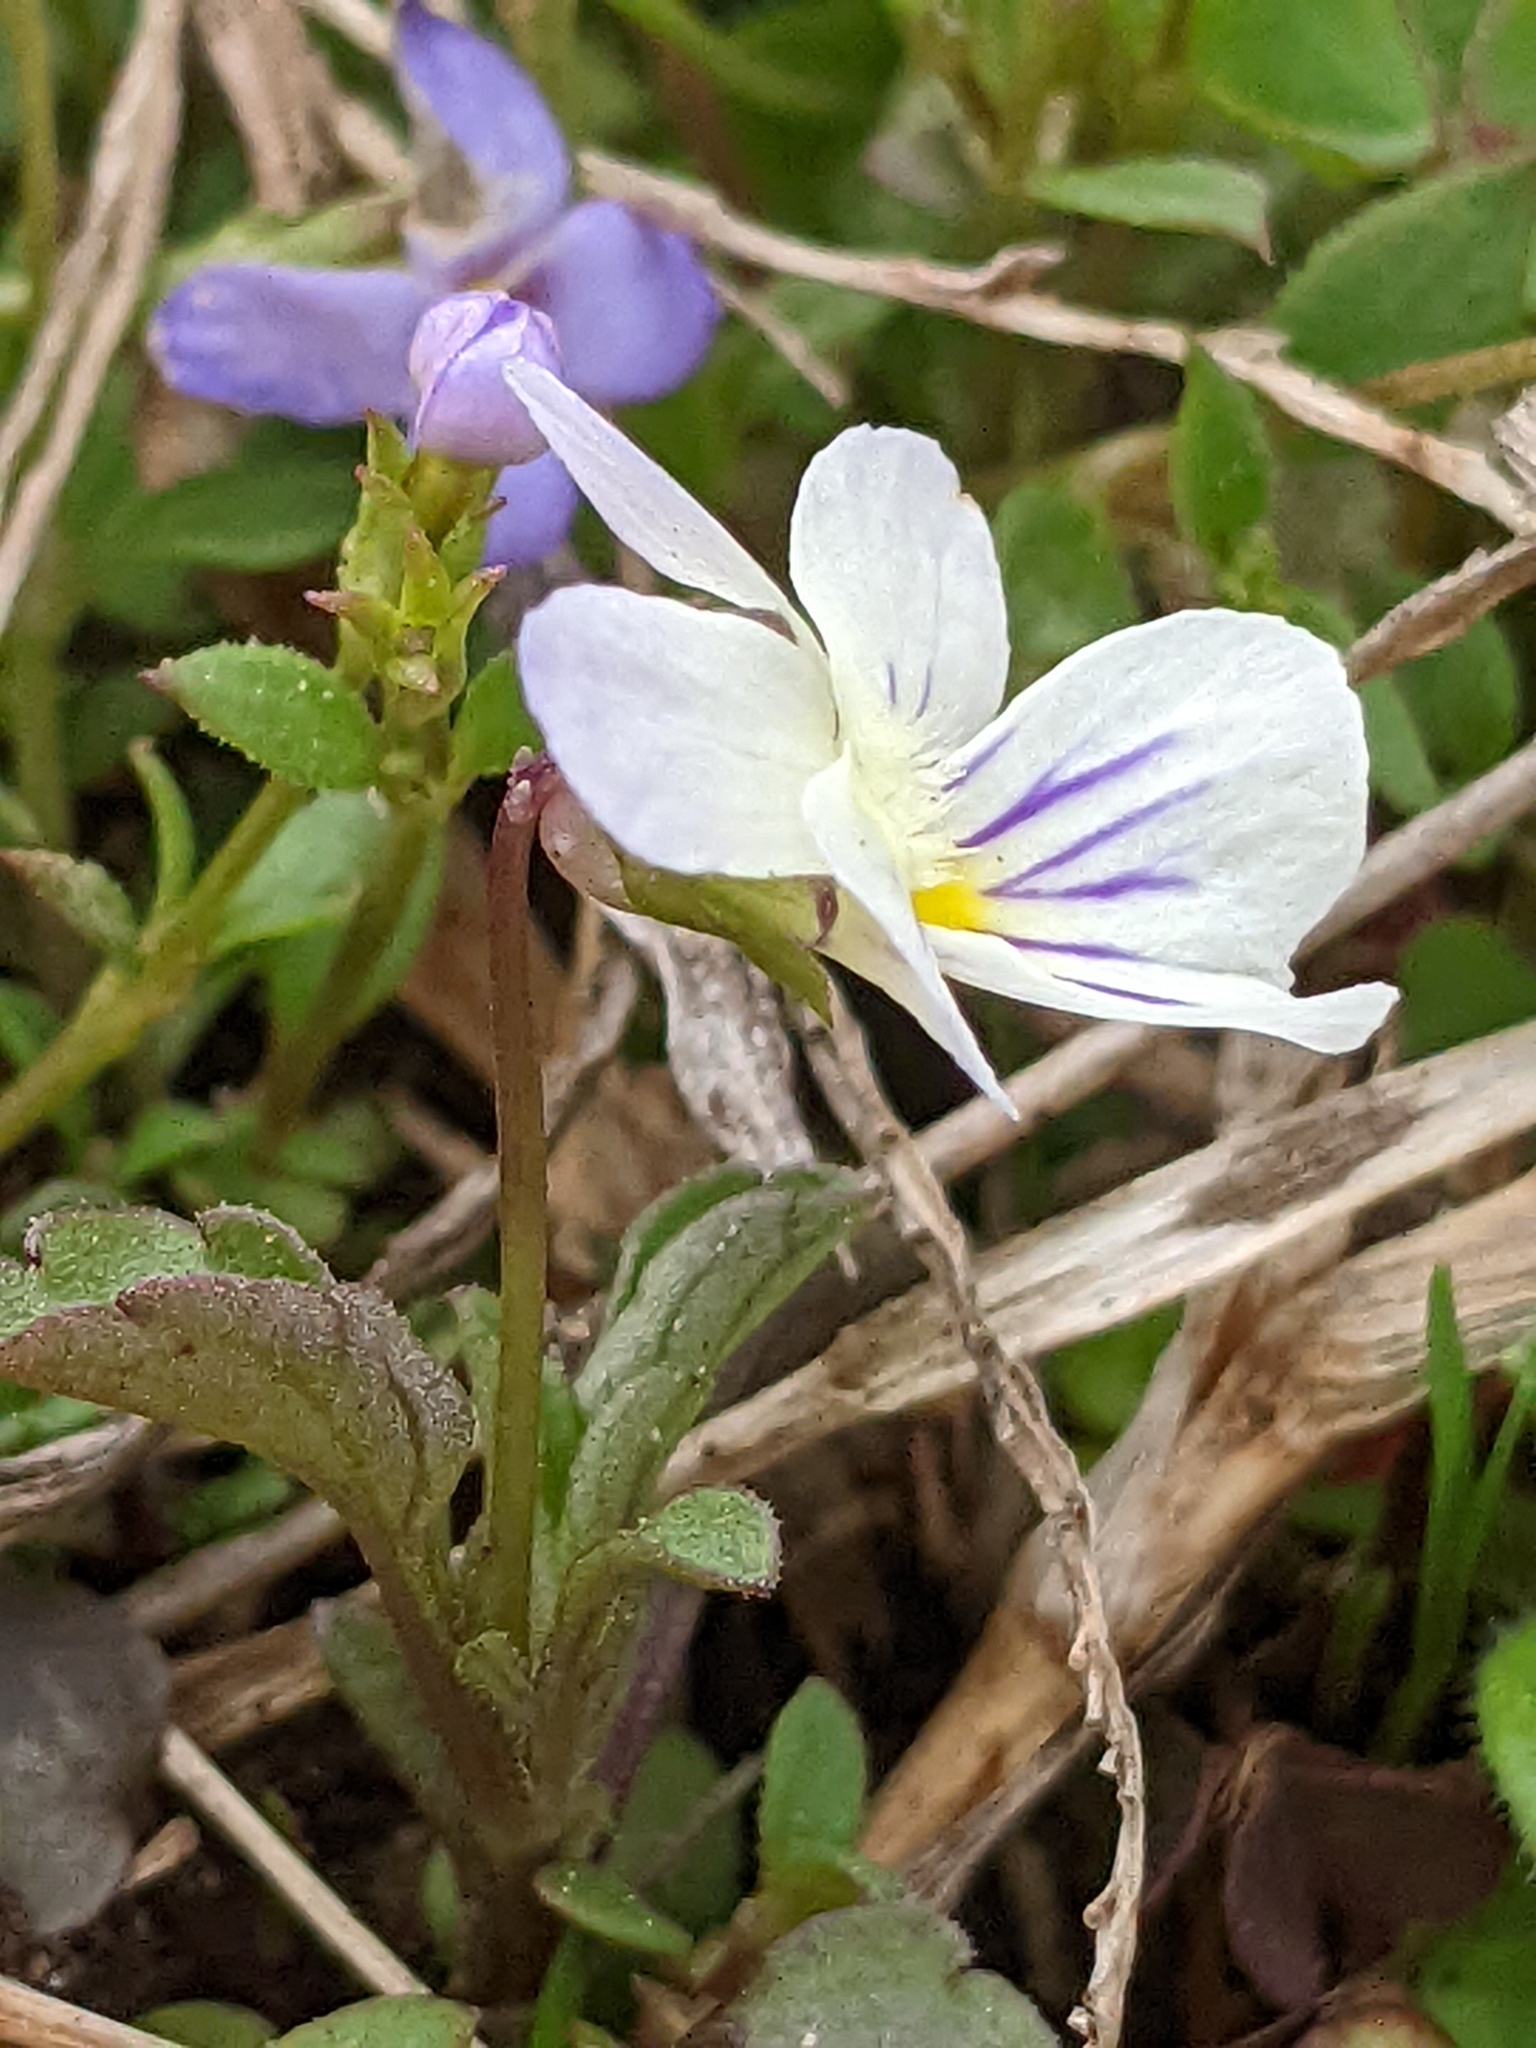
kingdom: Plantae
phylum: Tracheophyta
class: Magnoliopsida
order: Malpighiales
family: Violaceae
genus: Viola
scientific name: Viola rafinesquei
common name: American field pansy
